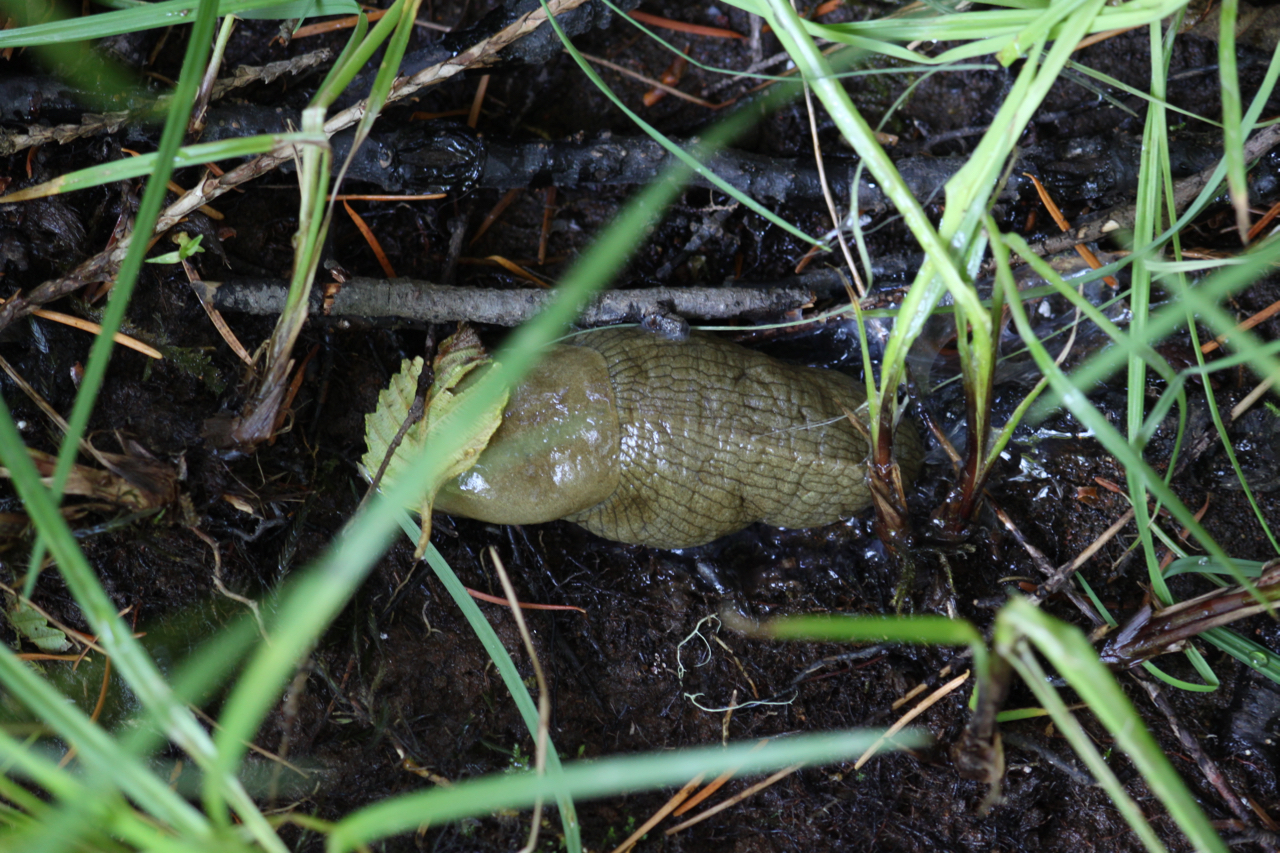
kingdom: Animalia
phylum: Mollusca
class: Gastropoda
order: Stylommatophora
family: Ariolimacidae
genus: Ariolimax
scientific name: Ariolimax columbianus
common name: Pacific banana slug
